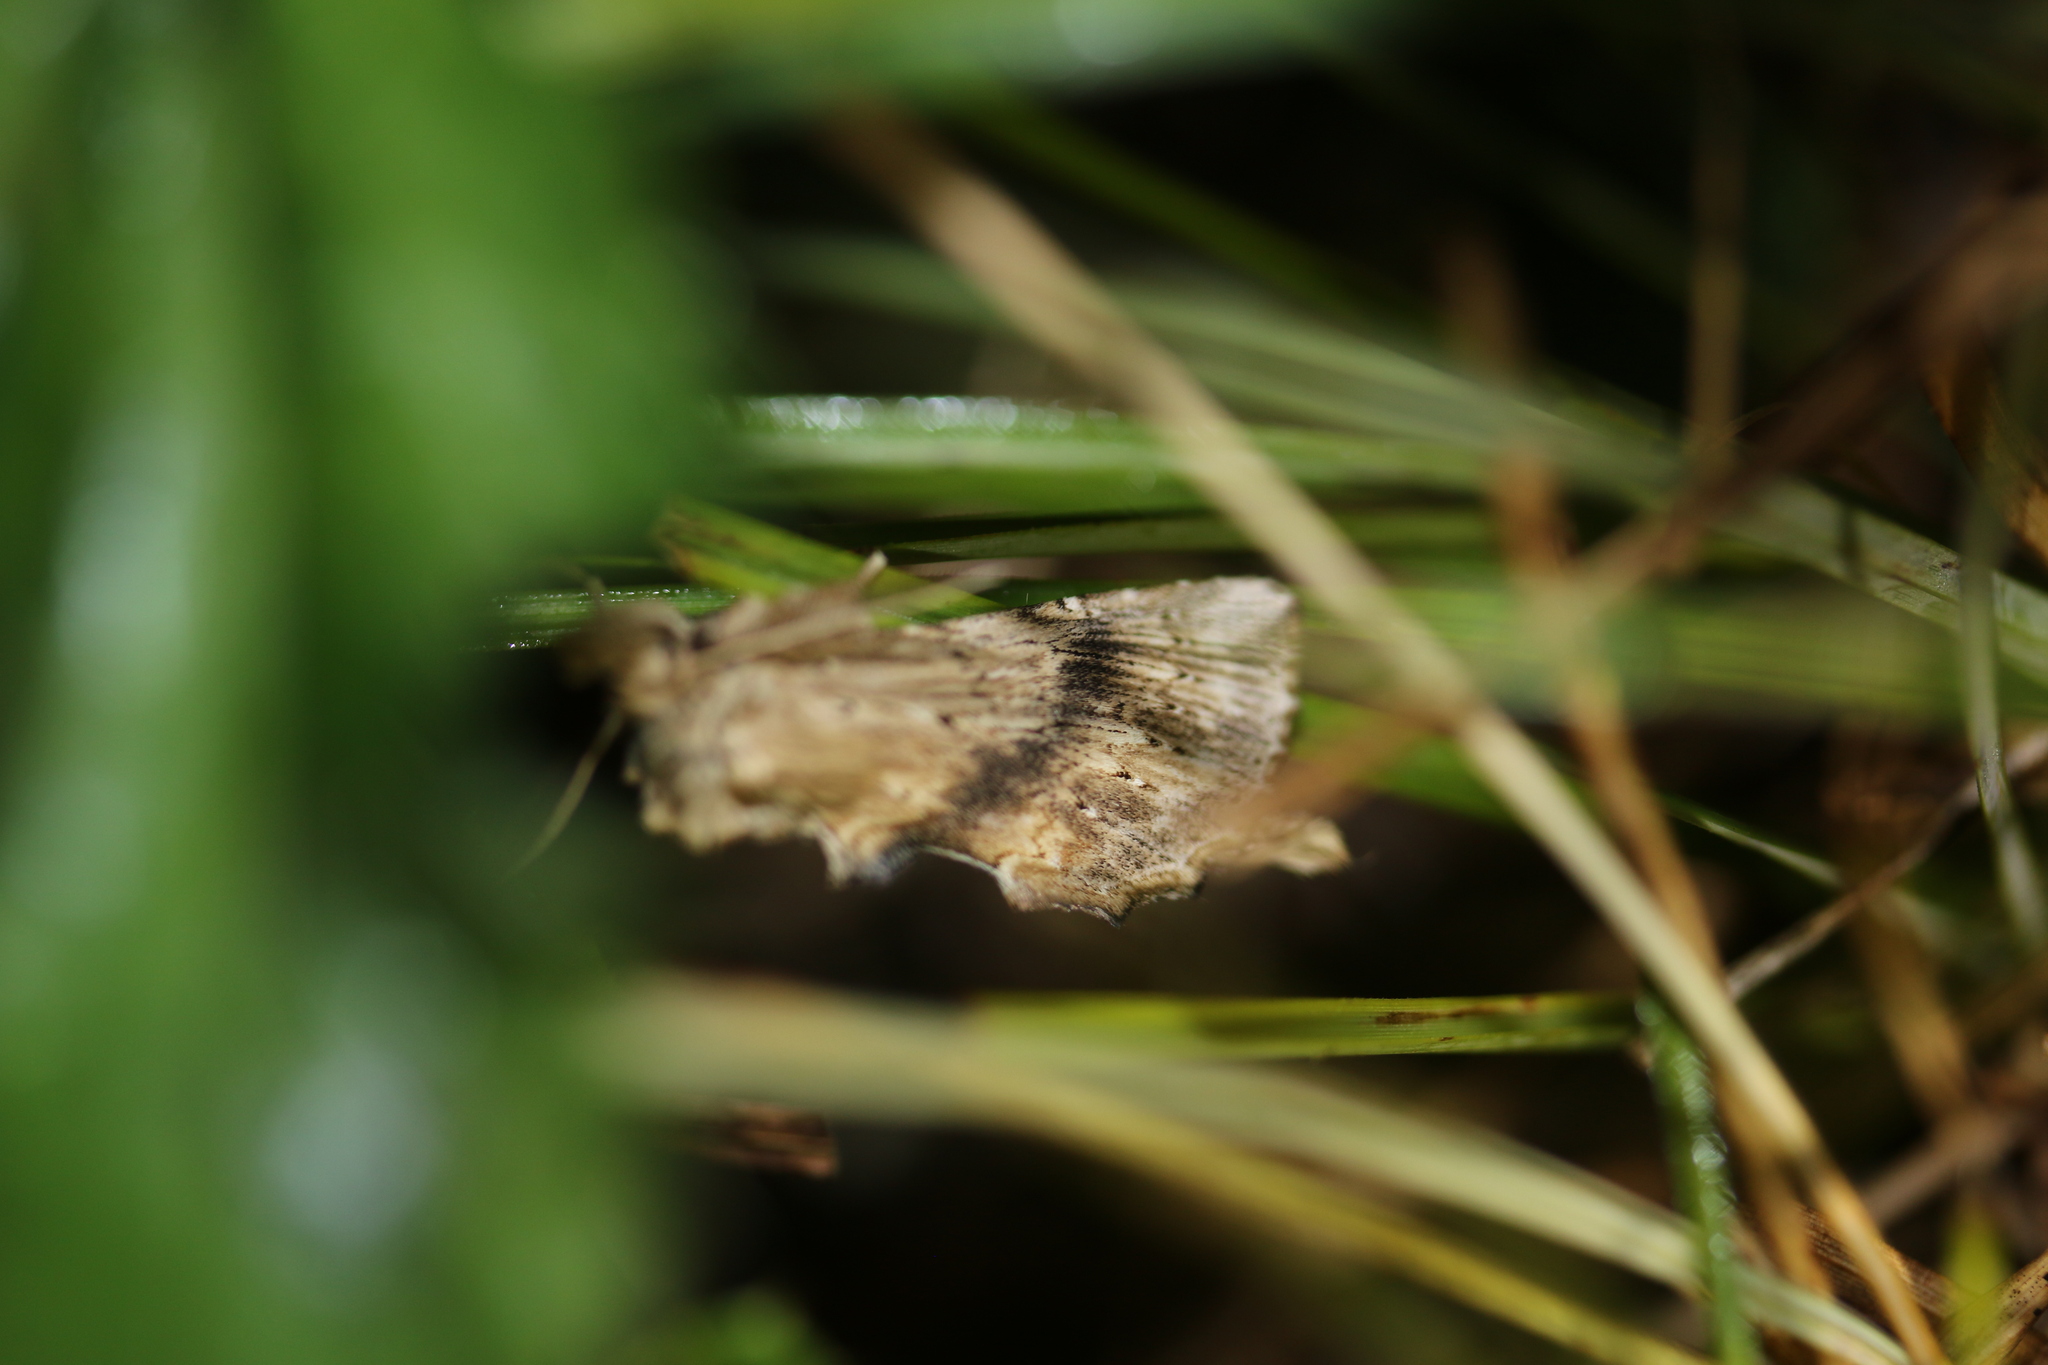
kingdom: Animalia
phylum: Arthropoda
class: Insecta
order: Lepidoptera
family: Notodontidae
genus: Pterostoma
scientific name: Pterostoma palpina
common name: Pale prominent
